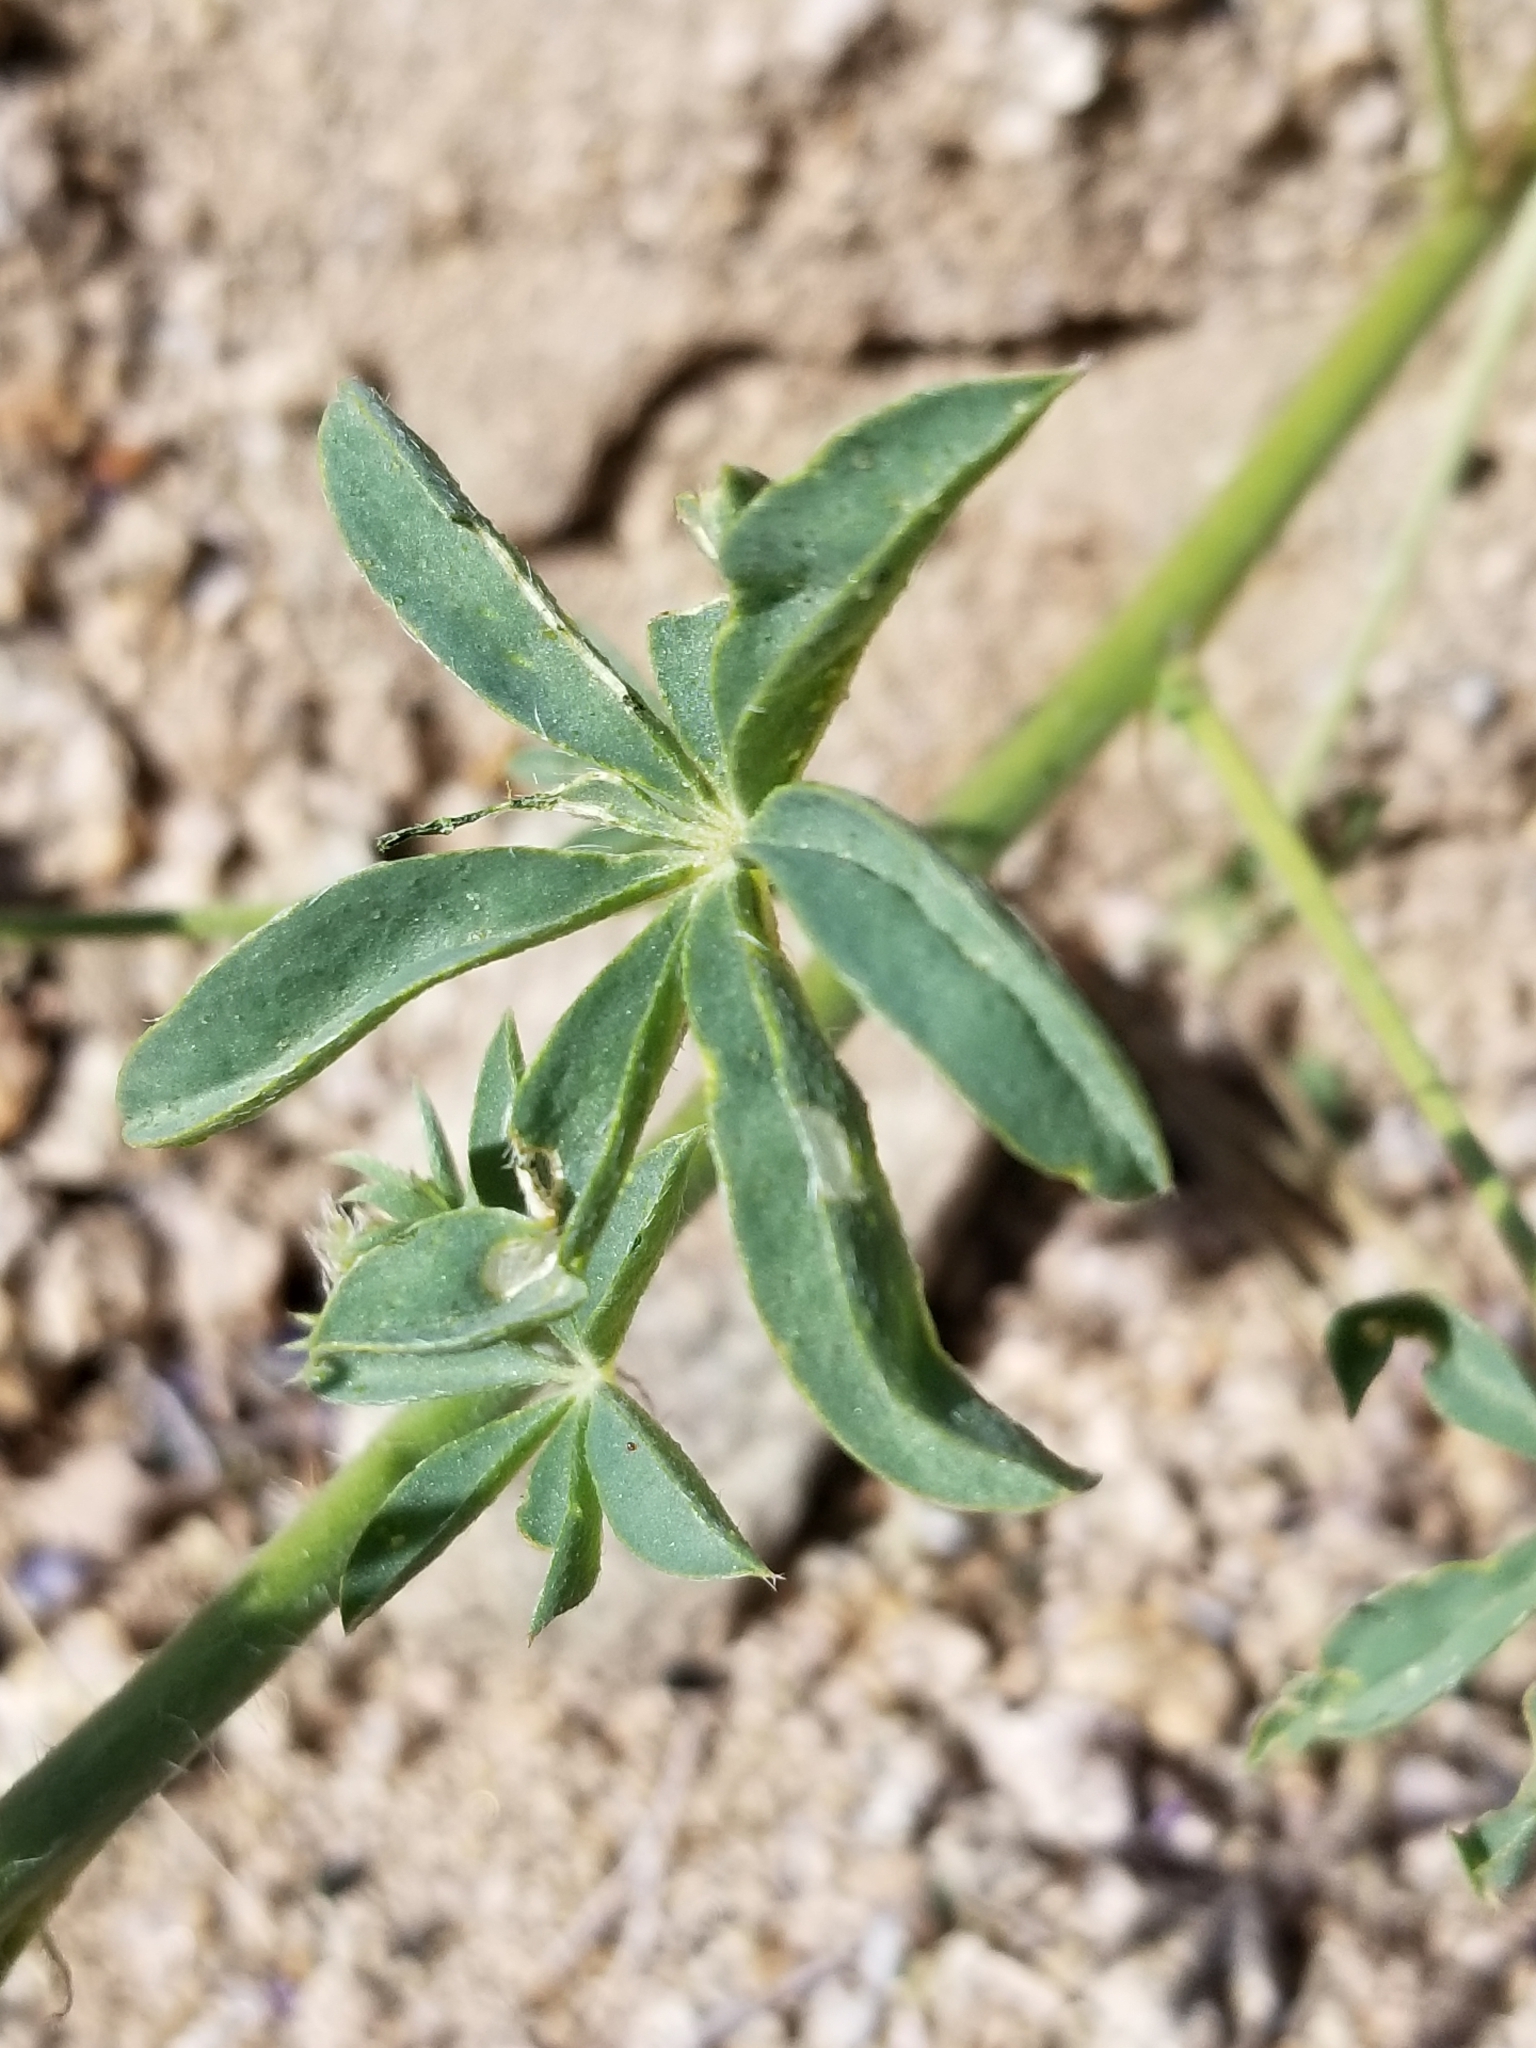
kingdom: Plantae
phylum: Tracheophyta
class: Magnoliopsida
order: Fabales
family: Fabaceae
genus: Lupinus
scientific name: Lupinus arizonicus
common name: Arizona lupine
